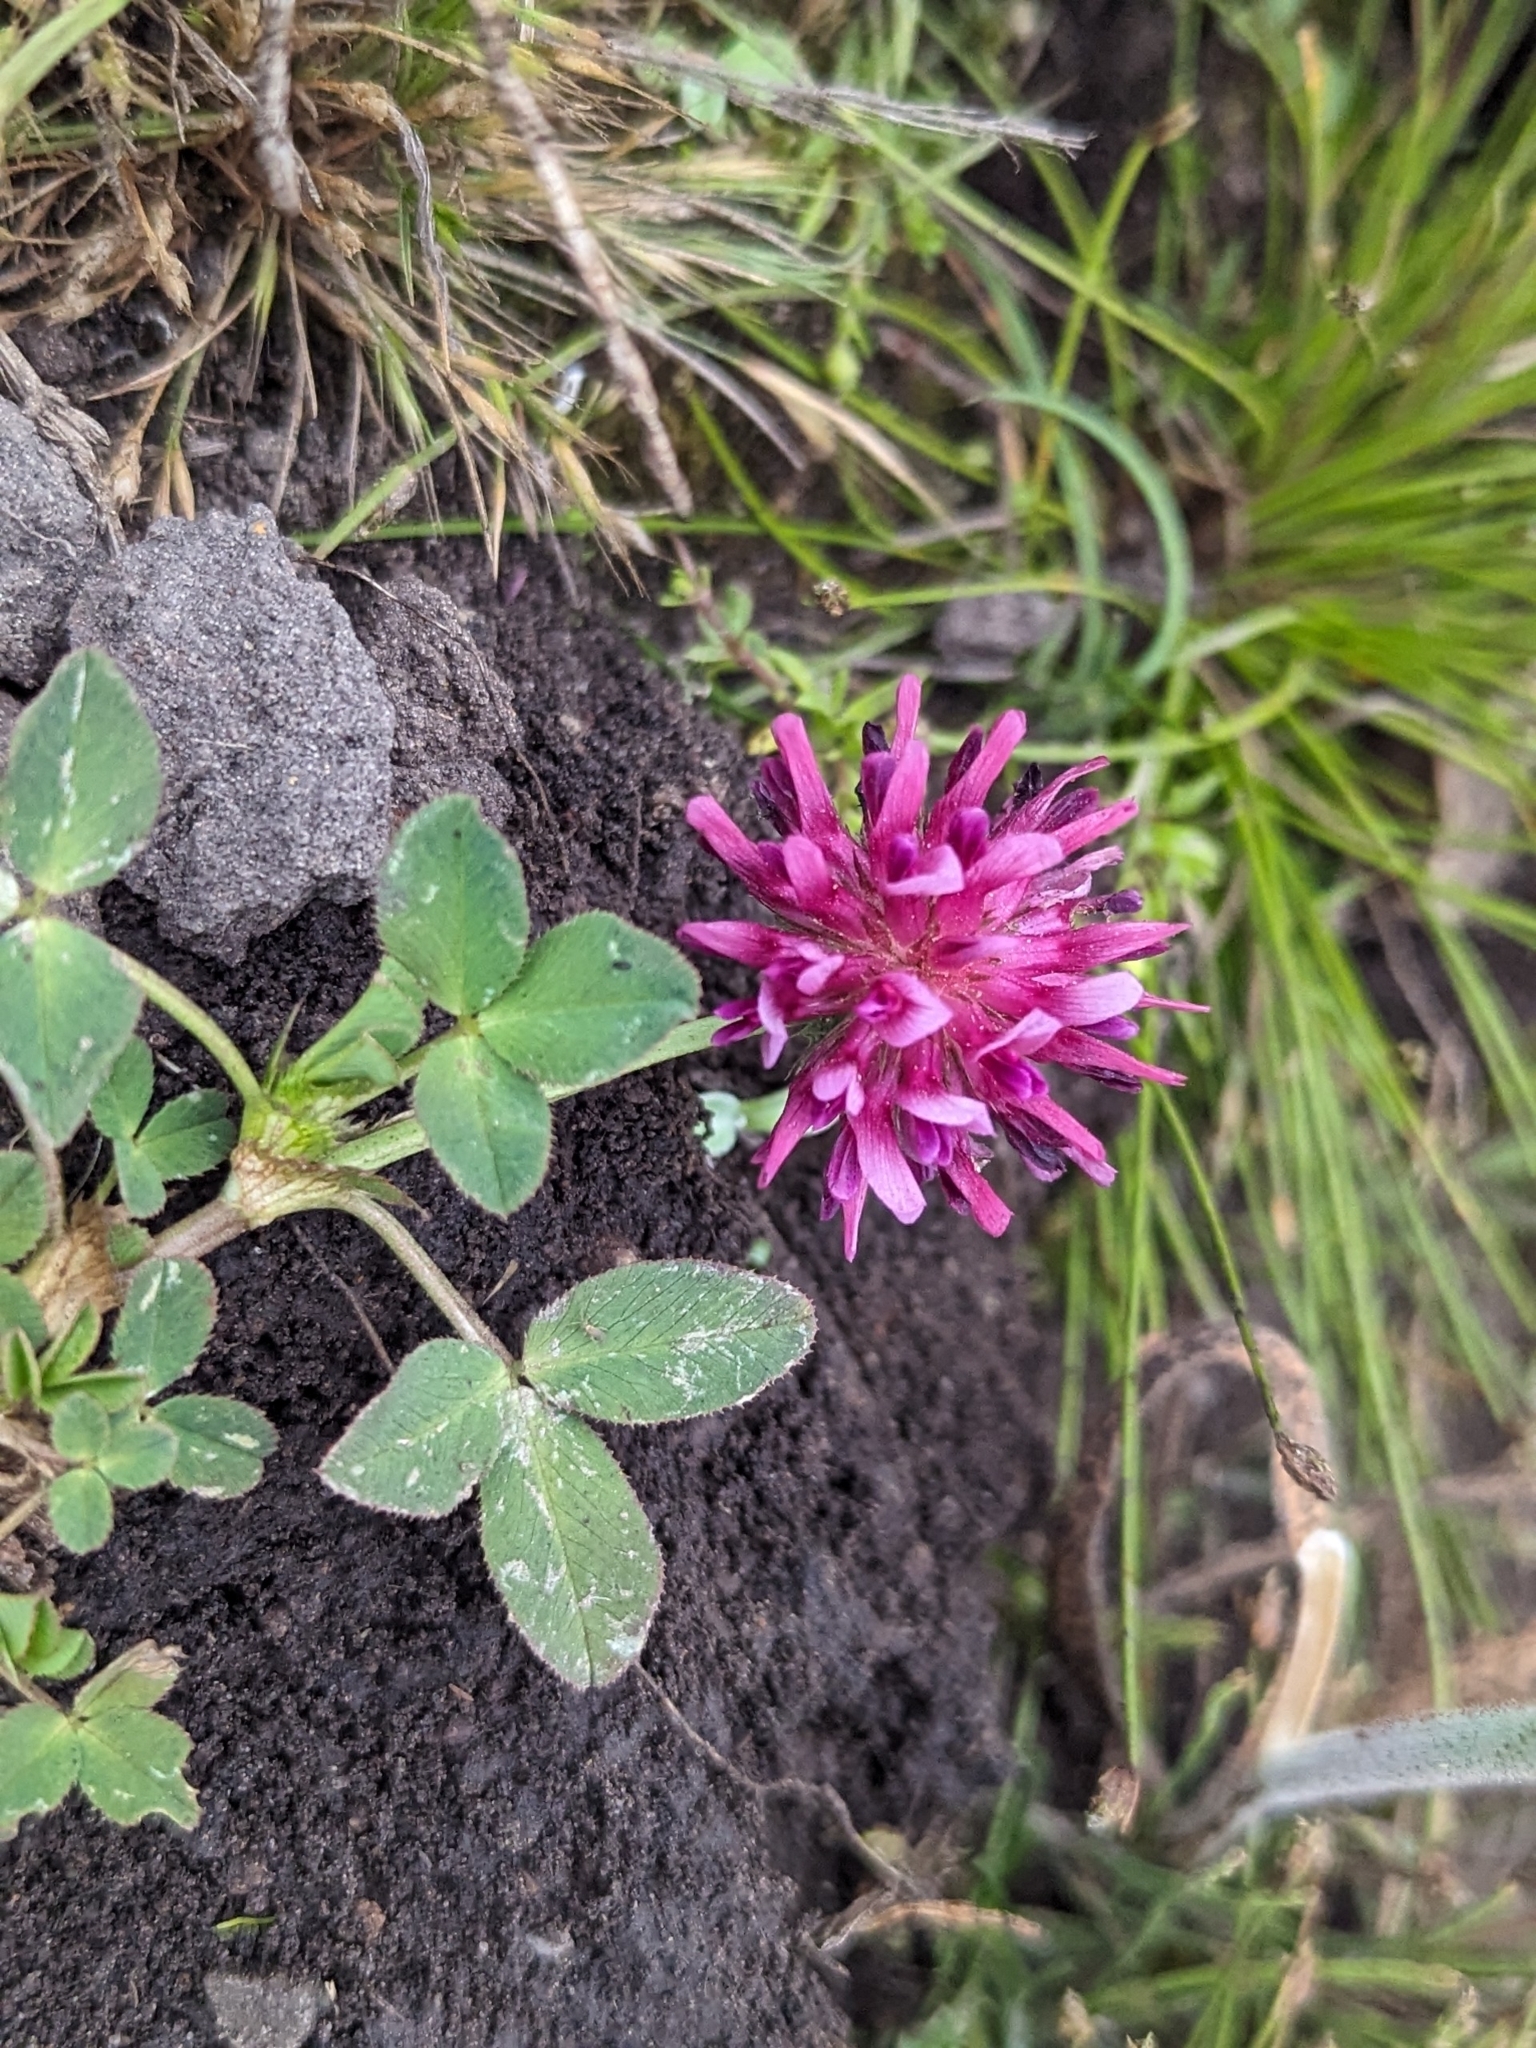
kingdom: Plantae
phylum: Tracheophyta
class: Magnoliopsida
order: Fabales
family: Fabaceae
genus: Trifolium
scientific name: Trifolium wormskioldii
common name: Springbank clover
